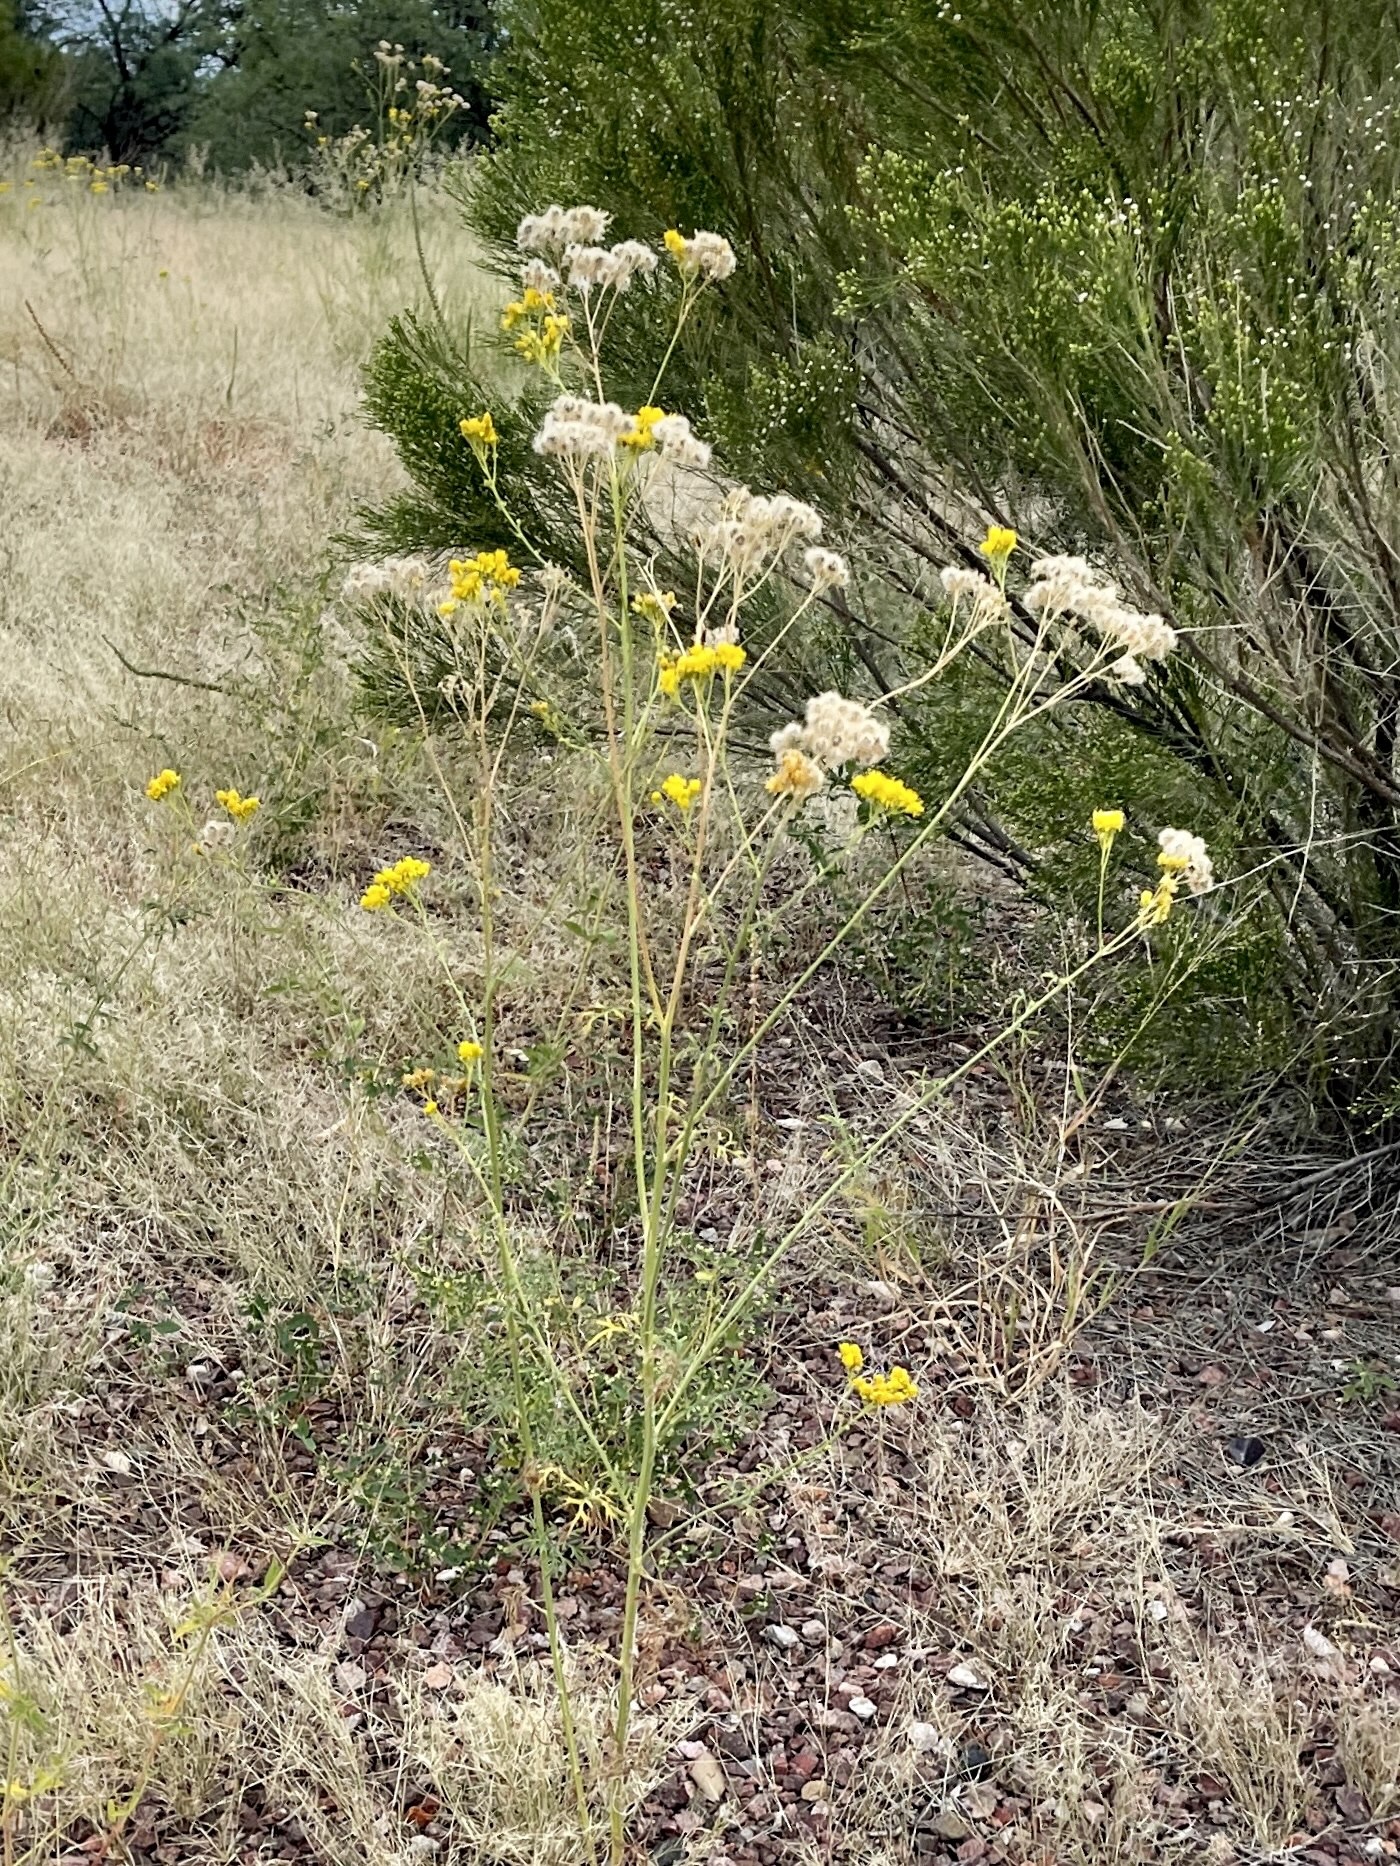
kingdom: Plantae
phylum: Tracheophyta
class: Magnoliopsida
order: Asterales
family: Asteraceae
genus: Hymenothrix
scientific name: Hymenothrix wislizeni
